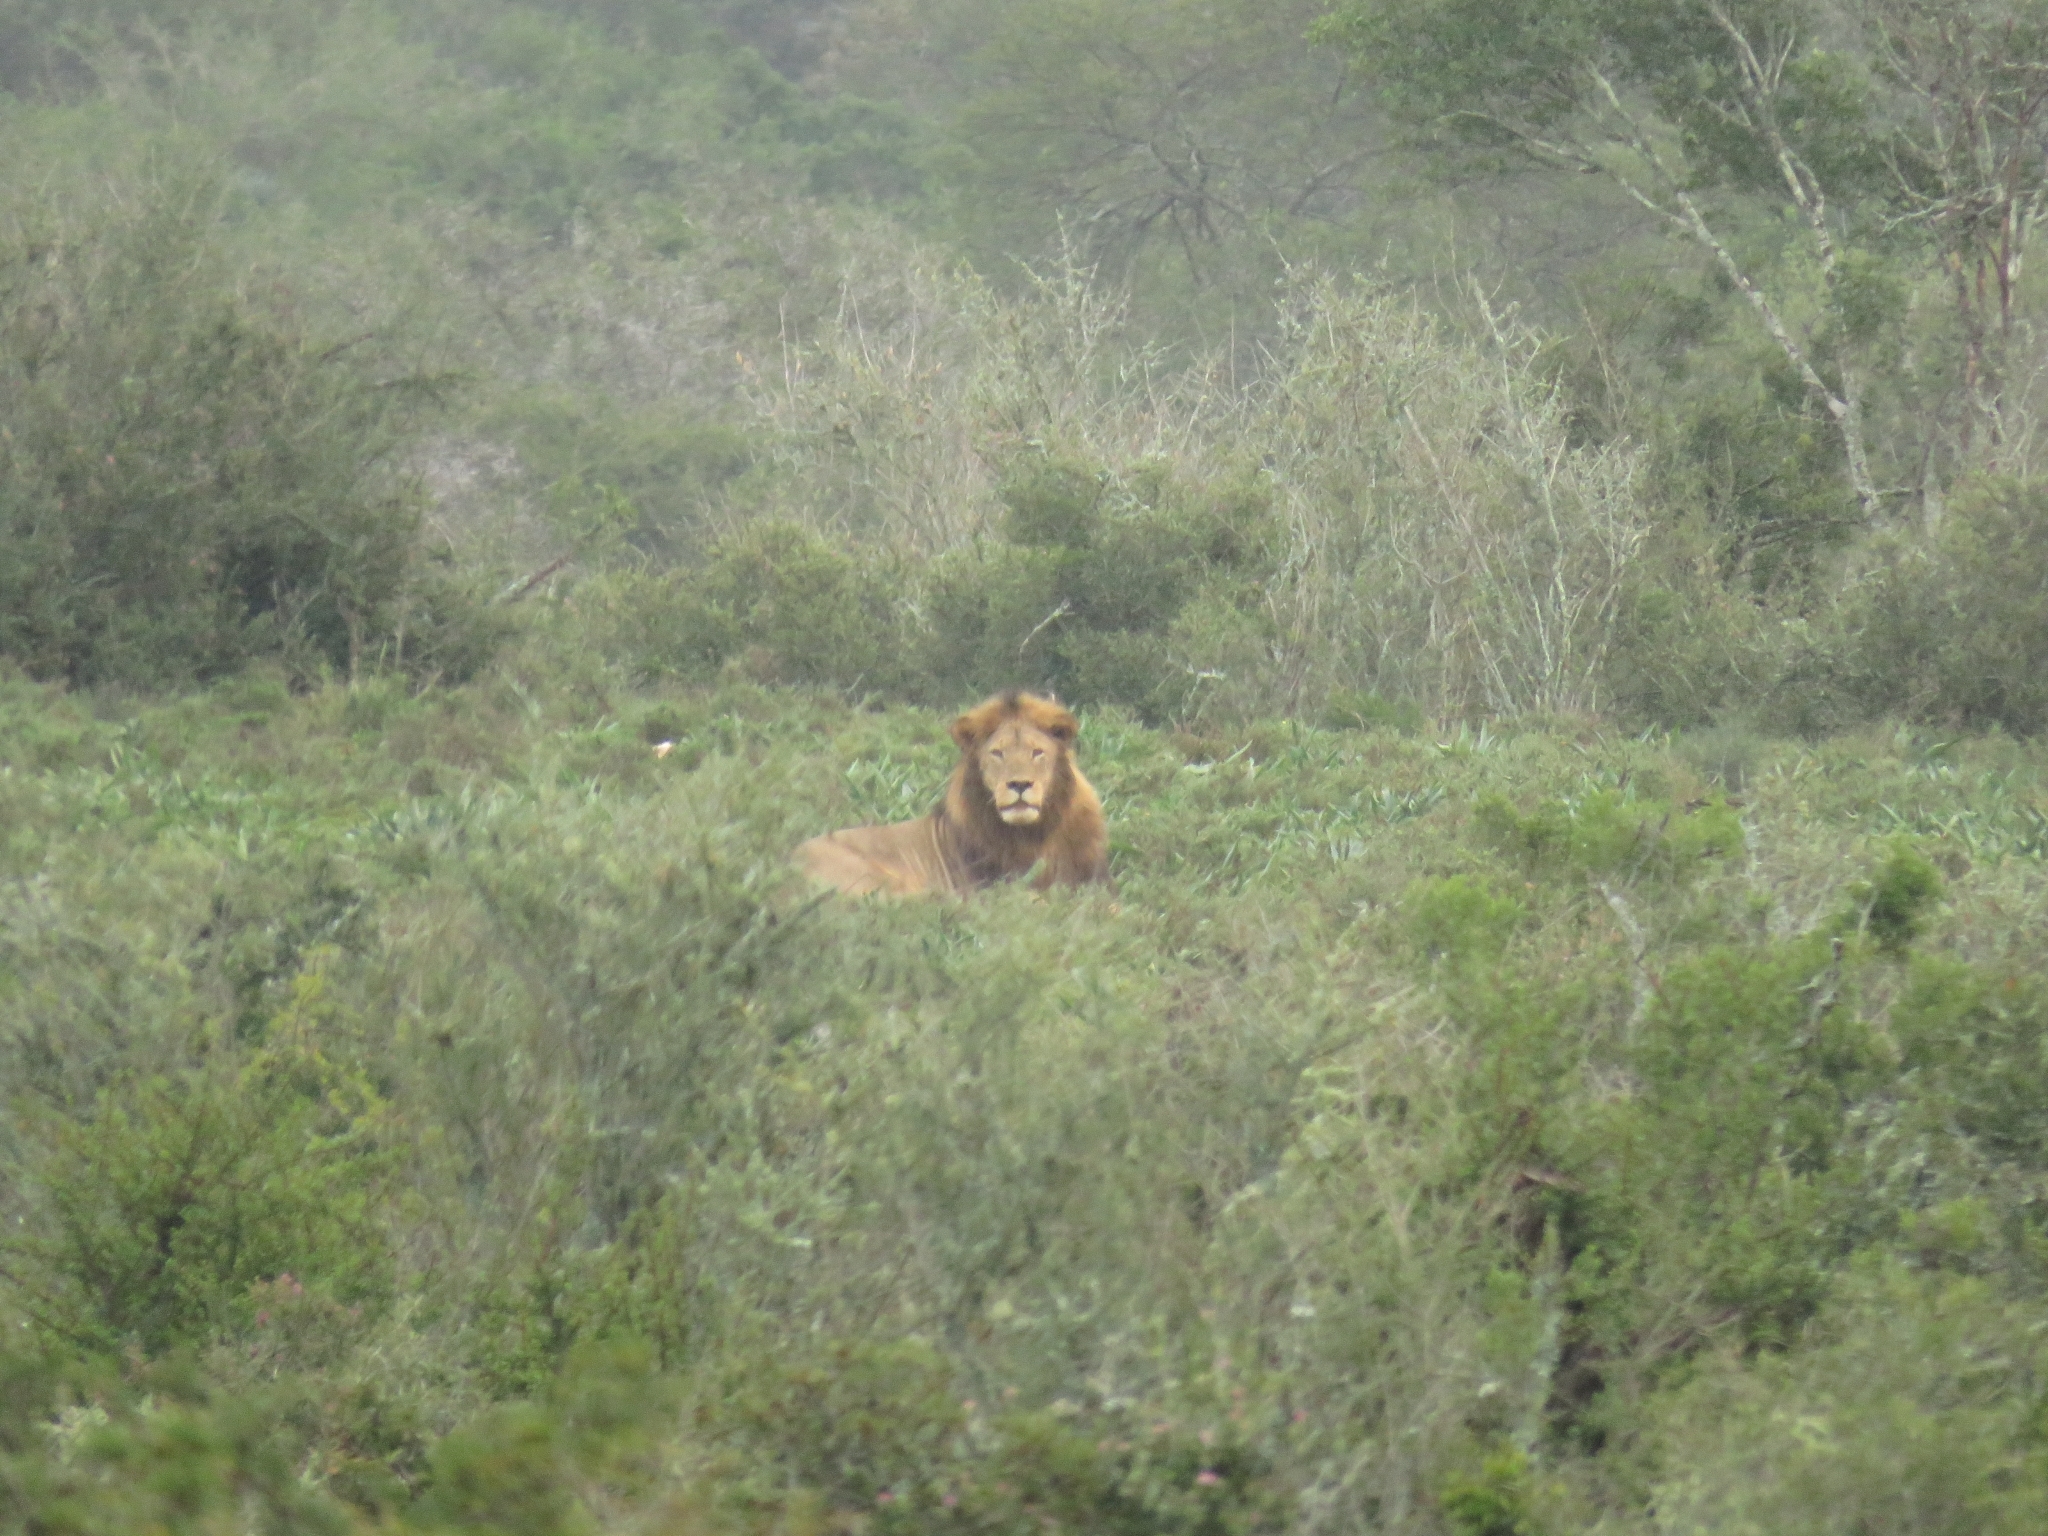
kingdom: Animalia
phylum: Chordata
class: Mammalia
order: Carnivora
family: Felidae
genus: Panthera
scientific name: Panthera leo
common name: Lion
